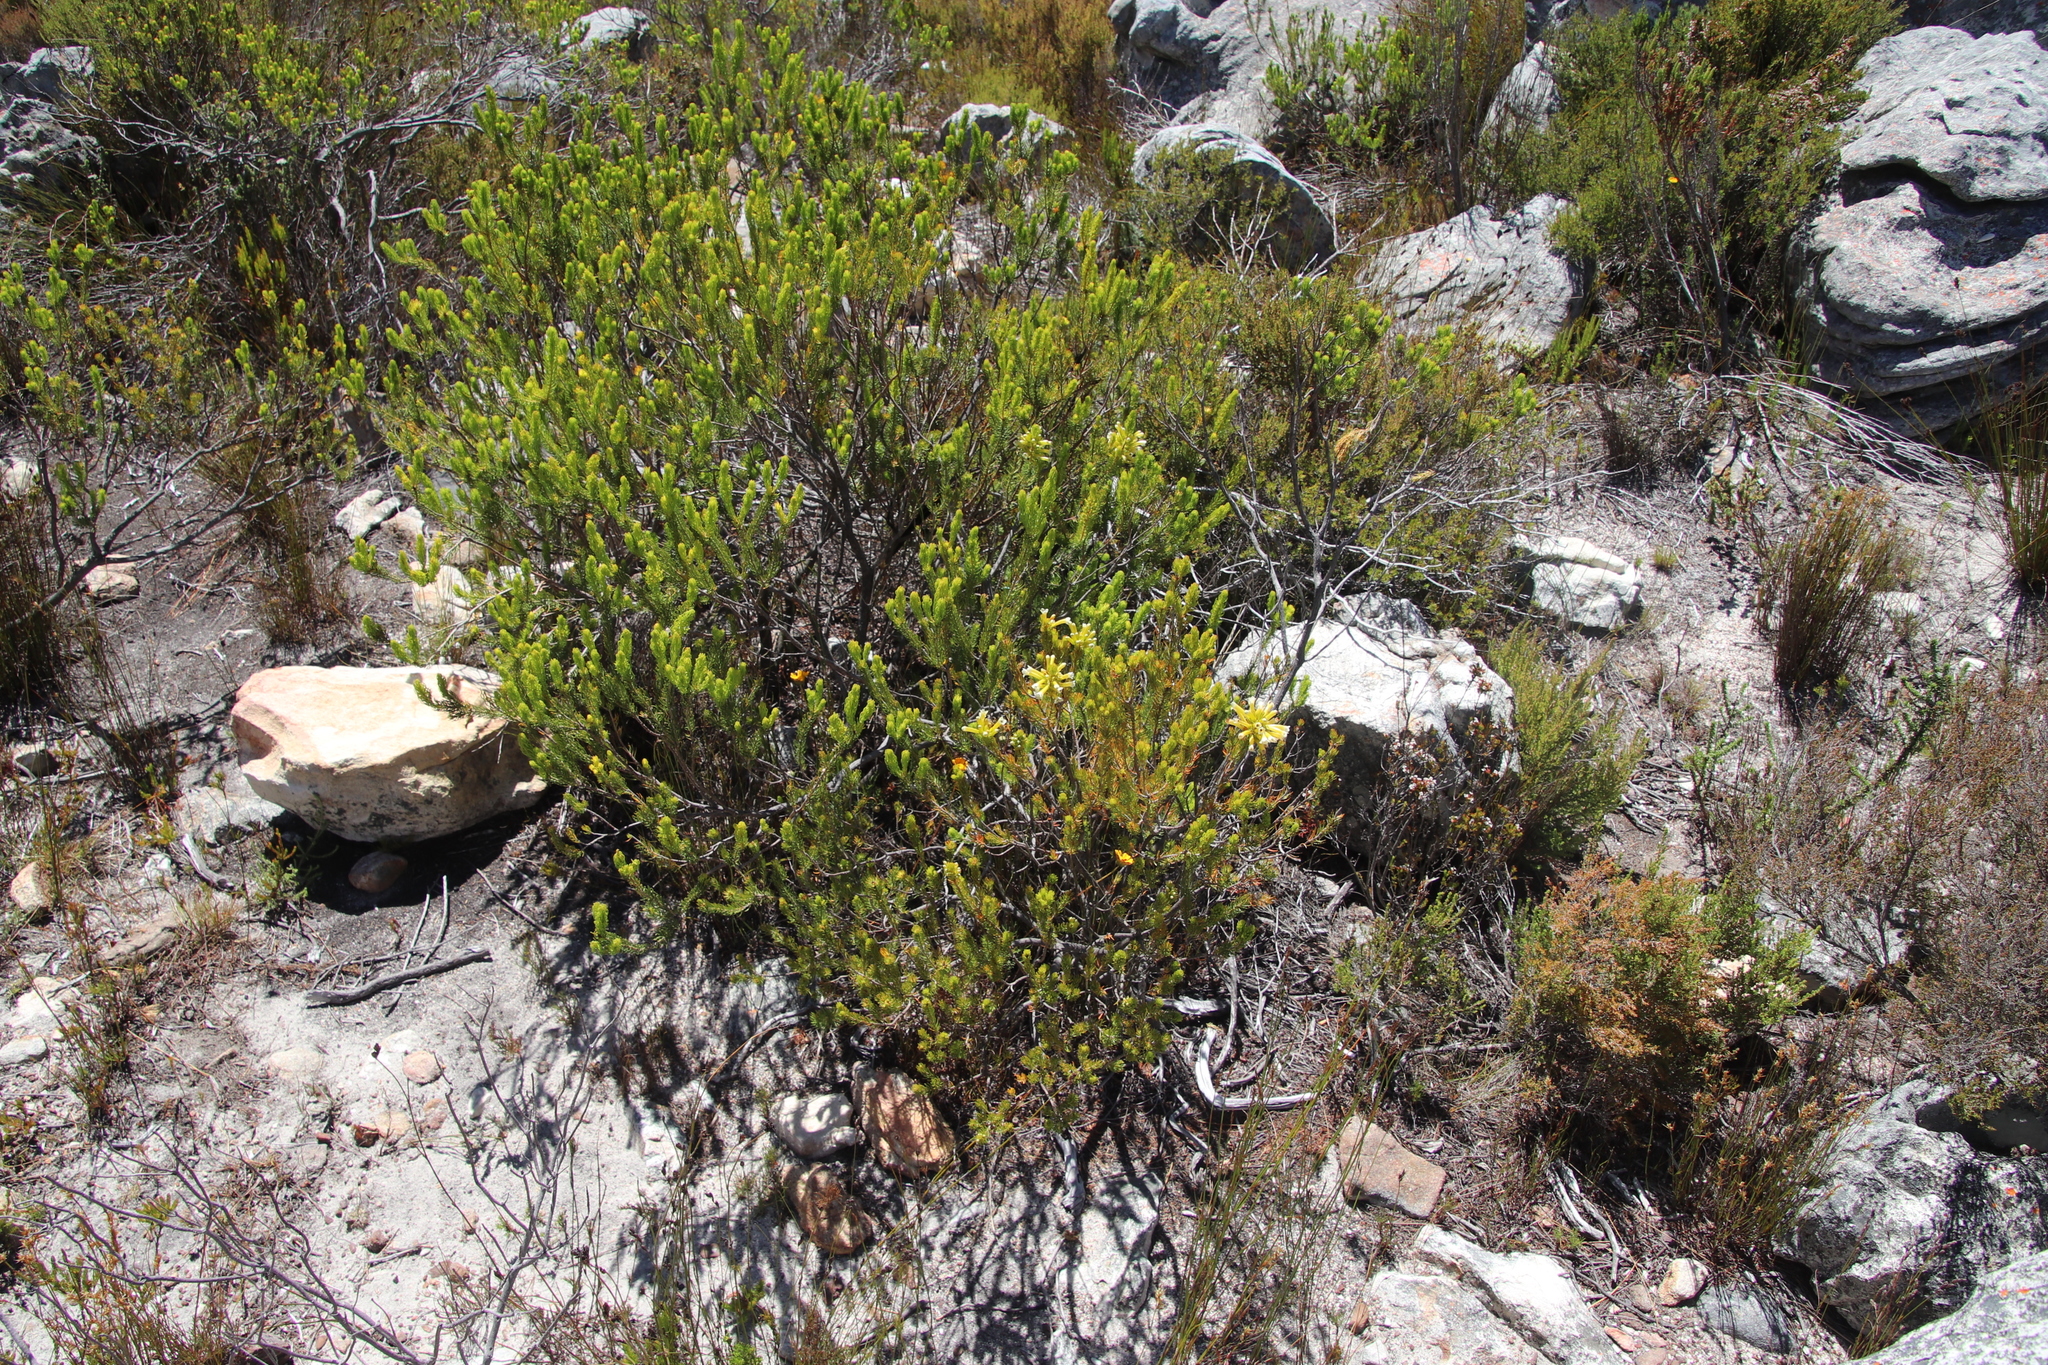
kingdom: Plantae
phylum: Tracheophyta
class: Magnoliopsida
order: Ericales
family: Ericaceae
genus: Erica
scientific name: Erica pinea
